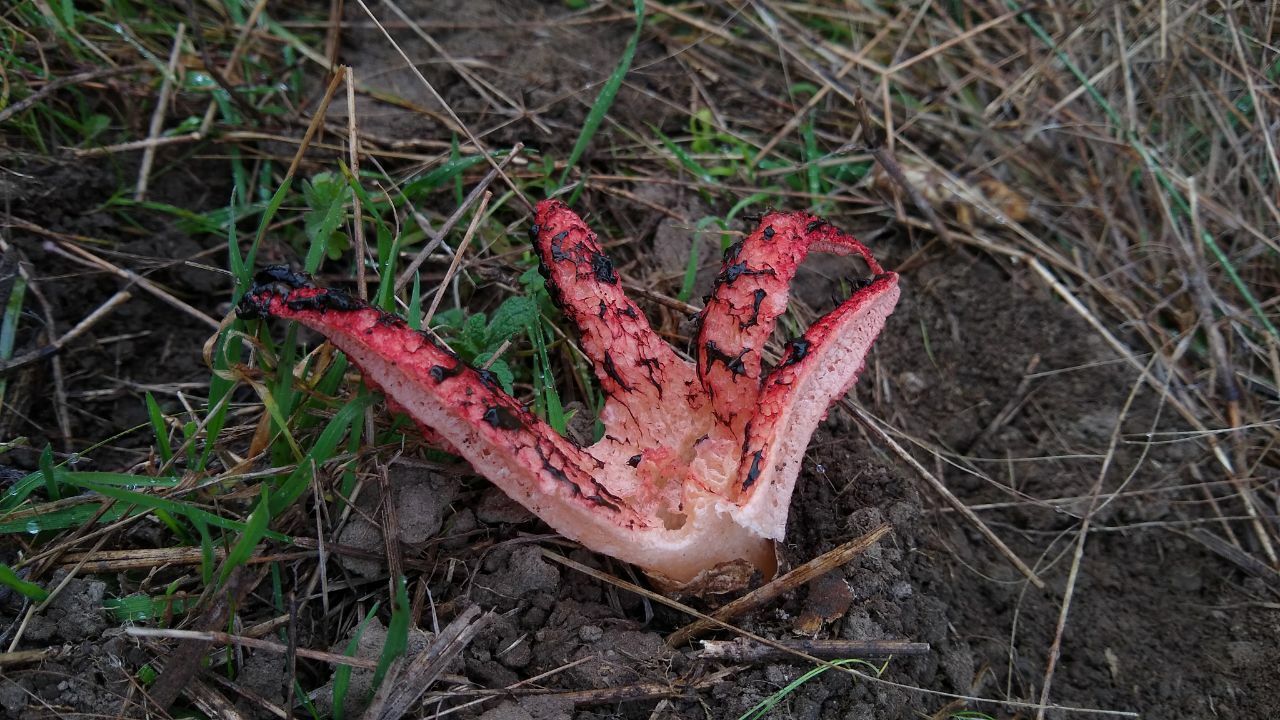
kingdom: Fungi
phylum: Basidiomycota
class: Agaricomycetes
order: Phallales
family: Phallaceae
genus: Clathrus
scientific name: Clathrus archeri
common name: Devil's fingers
